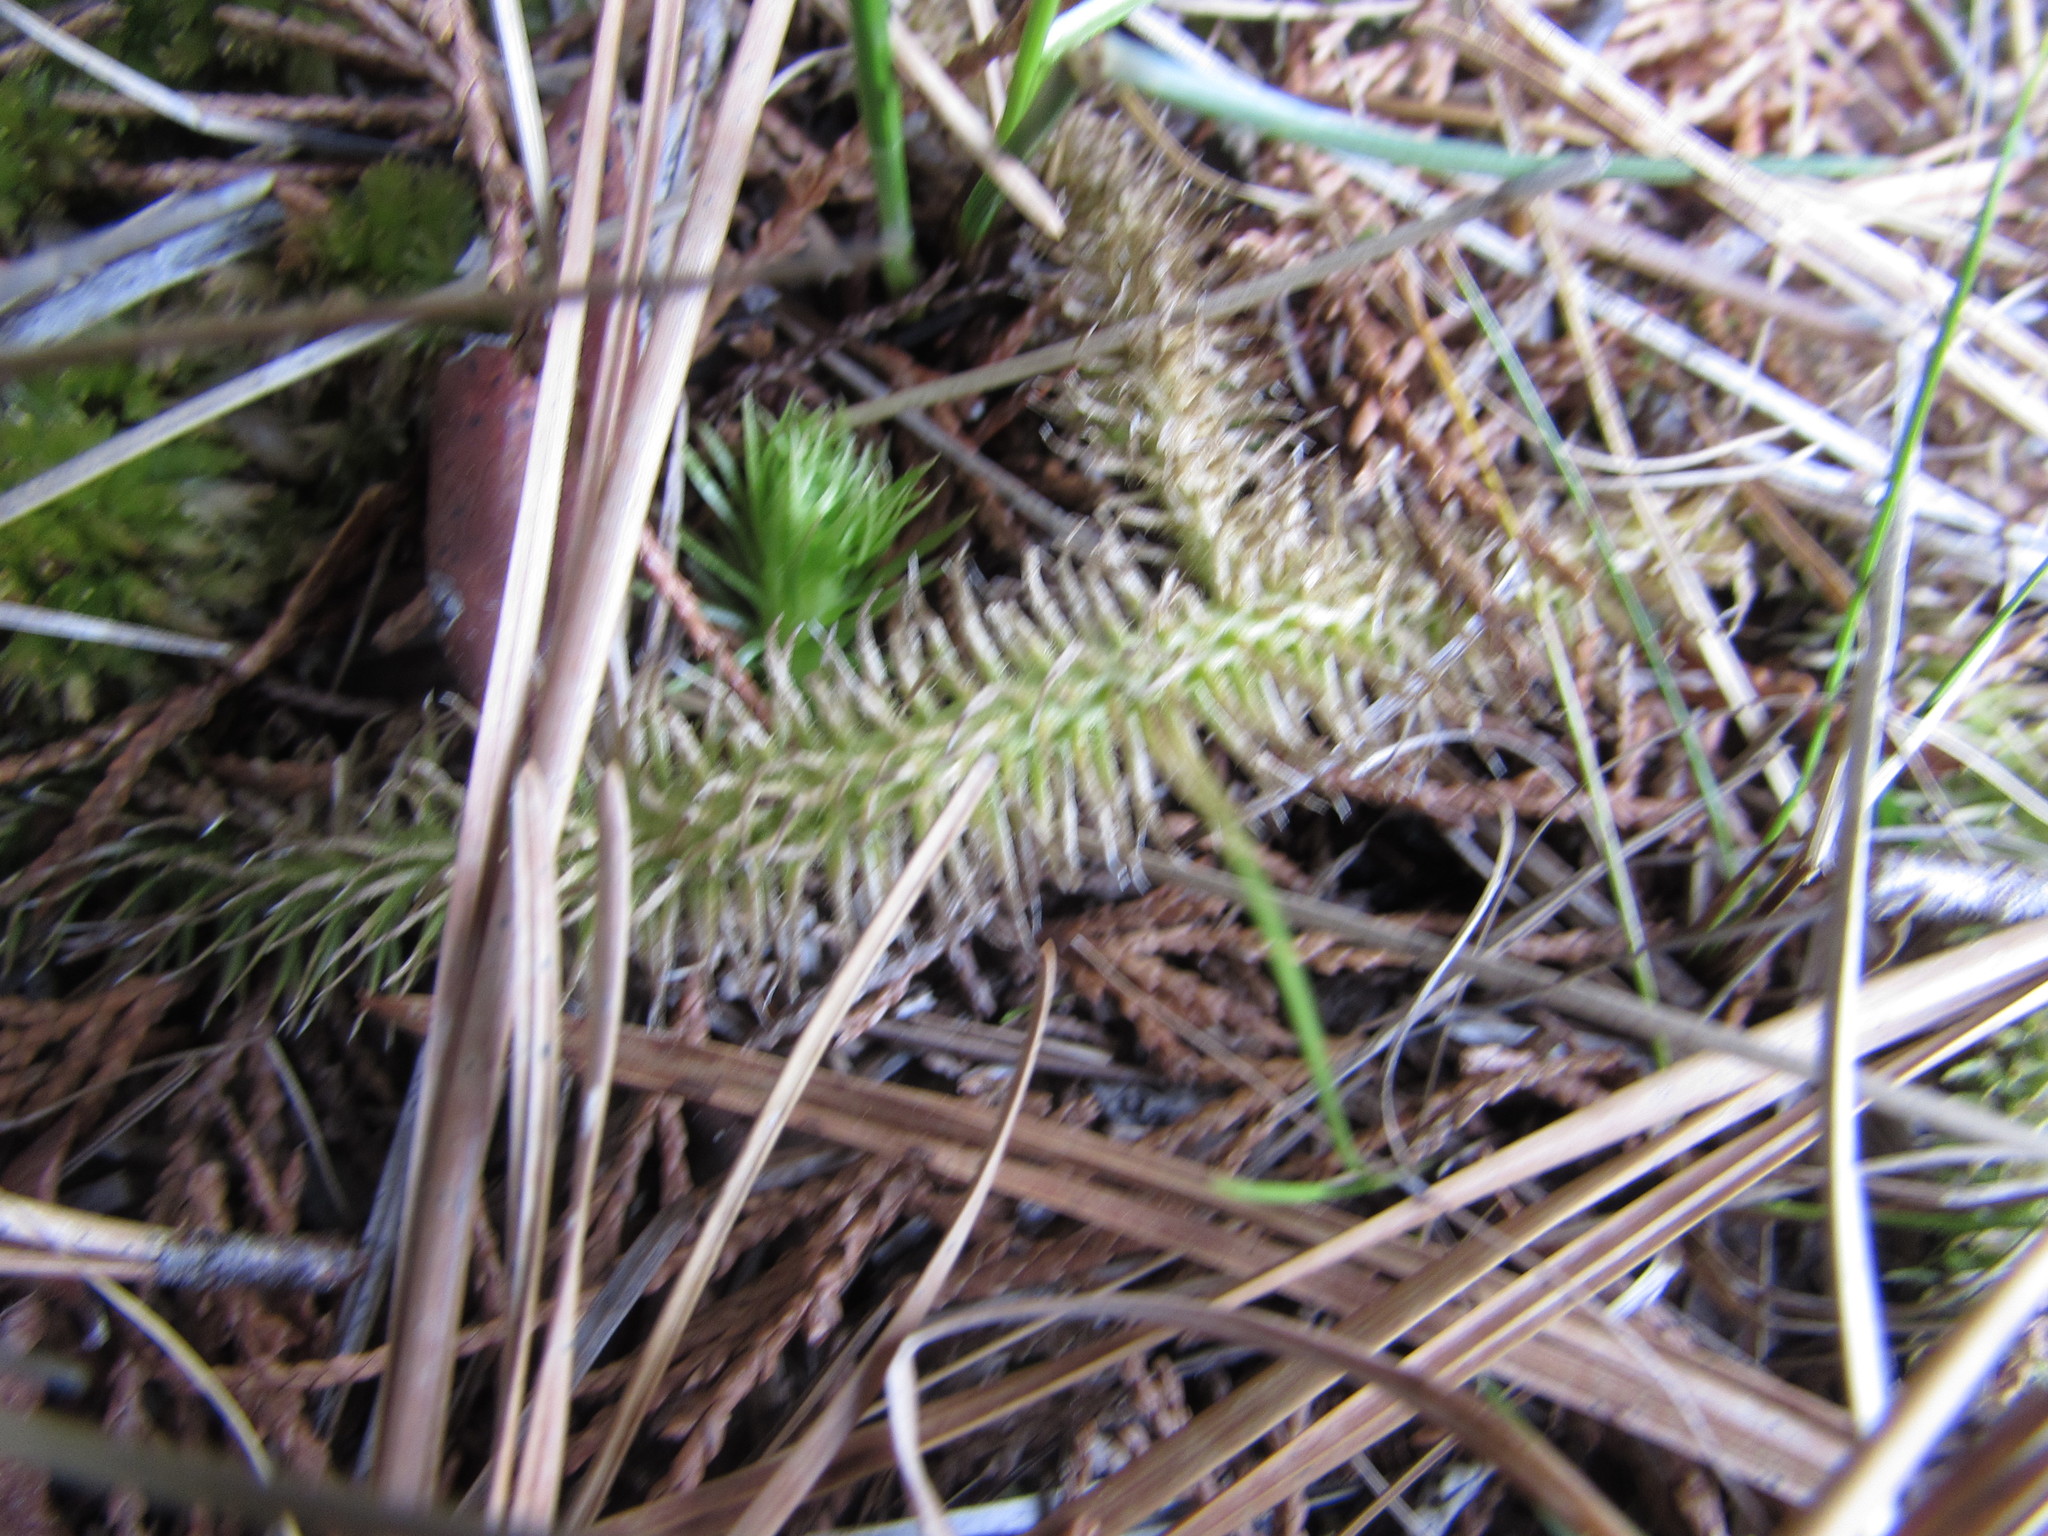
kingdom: Plantae
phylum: Tracheophyta
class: Lycopodiopsida
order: Lycopodiales
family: Lycopodiaceae
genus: Lycopodiella
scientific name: Lycopodiella alopecuroides
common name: Foxtail clubmoss
